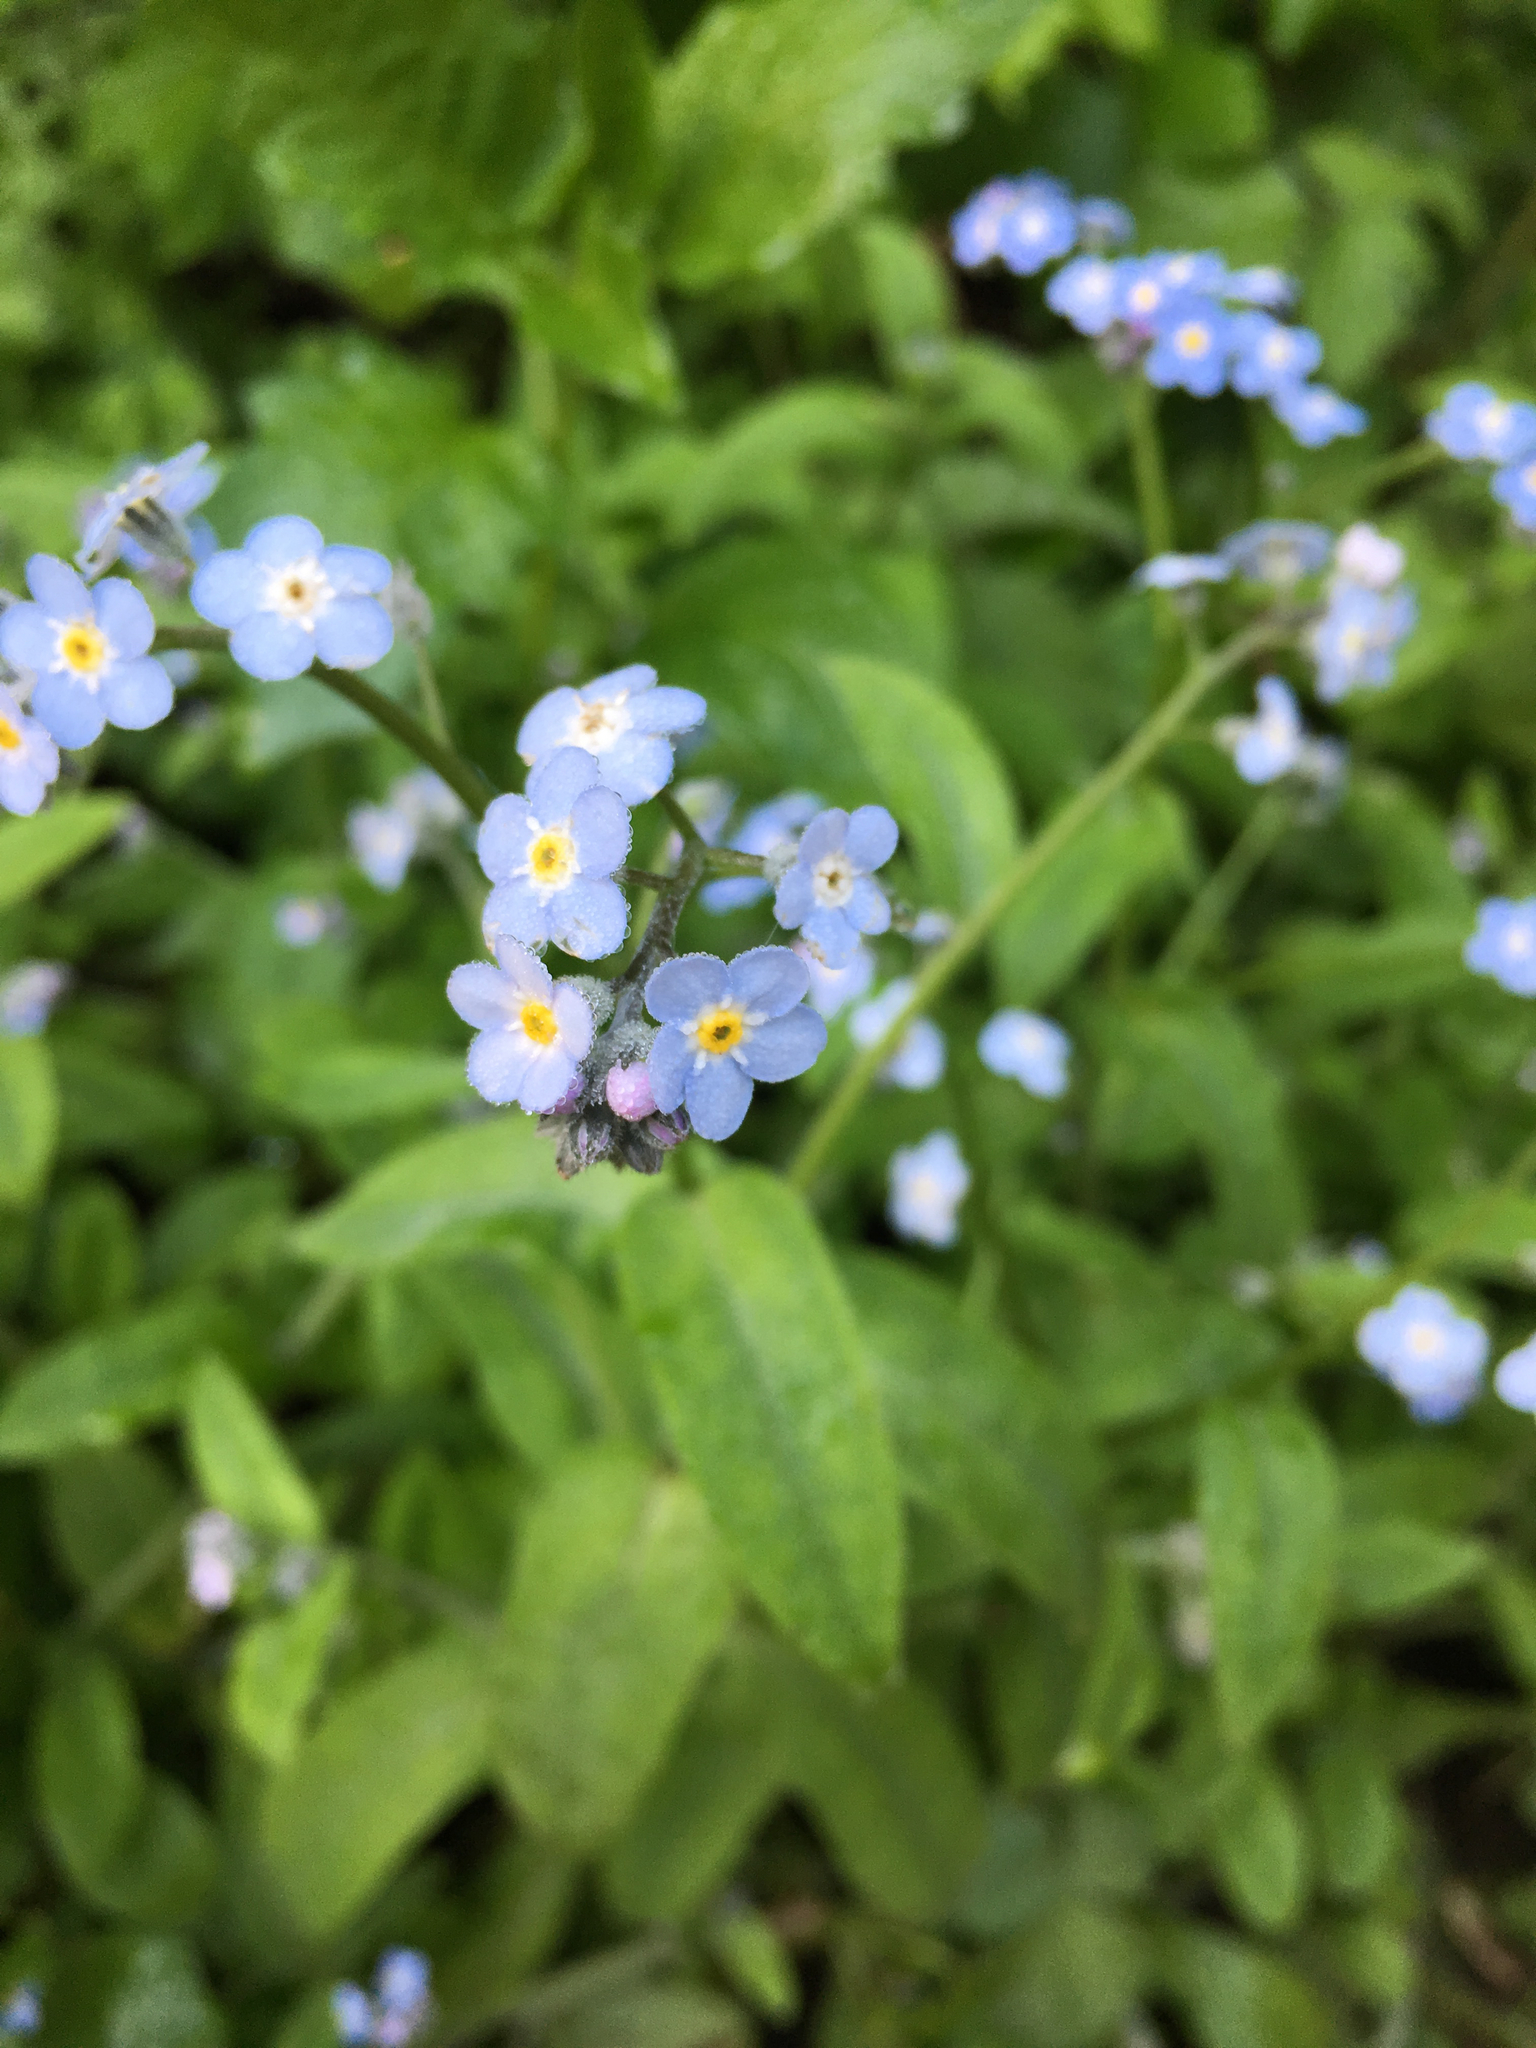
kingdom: Plantae
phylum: Tracheophyta
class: Magnoliopsida
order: Boraginales
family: Boraginaceae
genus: Myosotis
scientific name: Myosotis latifolia
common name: Broadleaf forget-me-not
